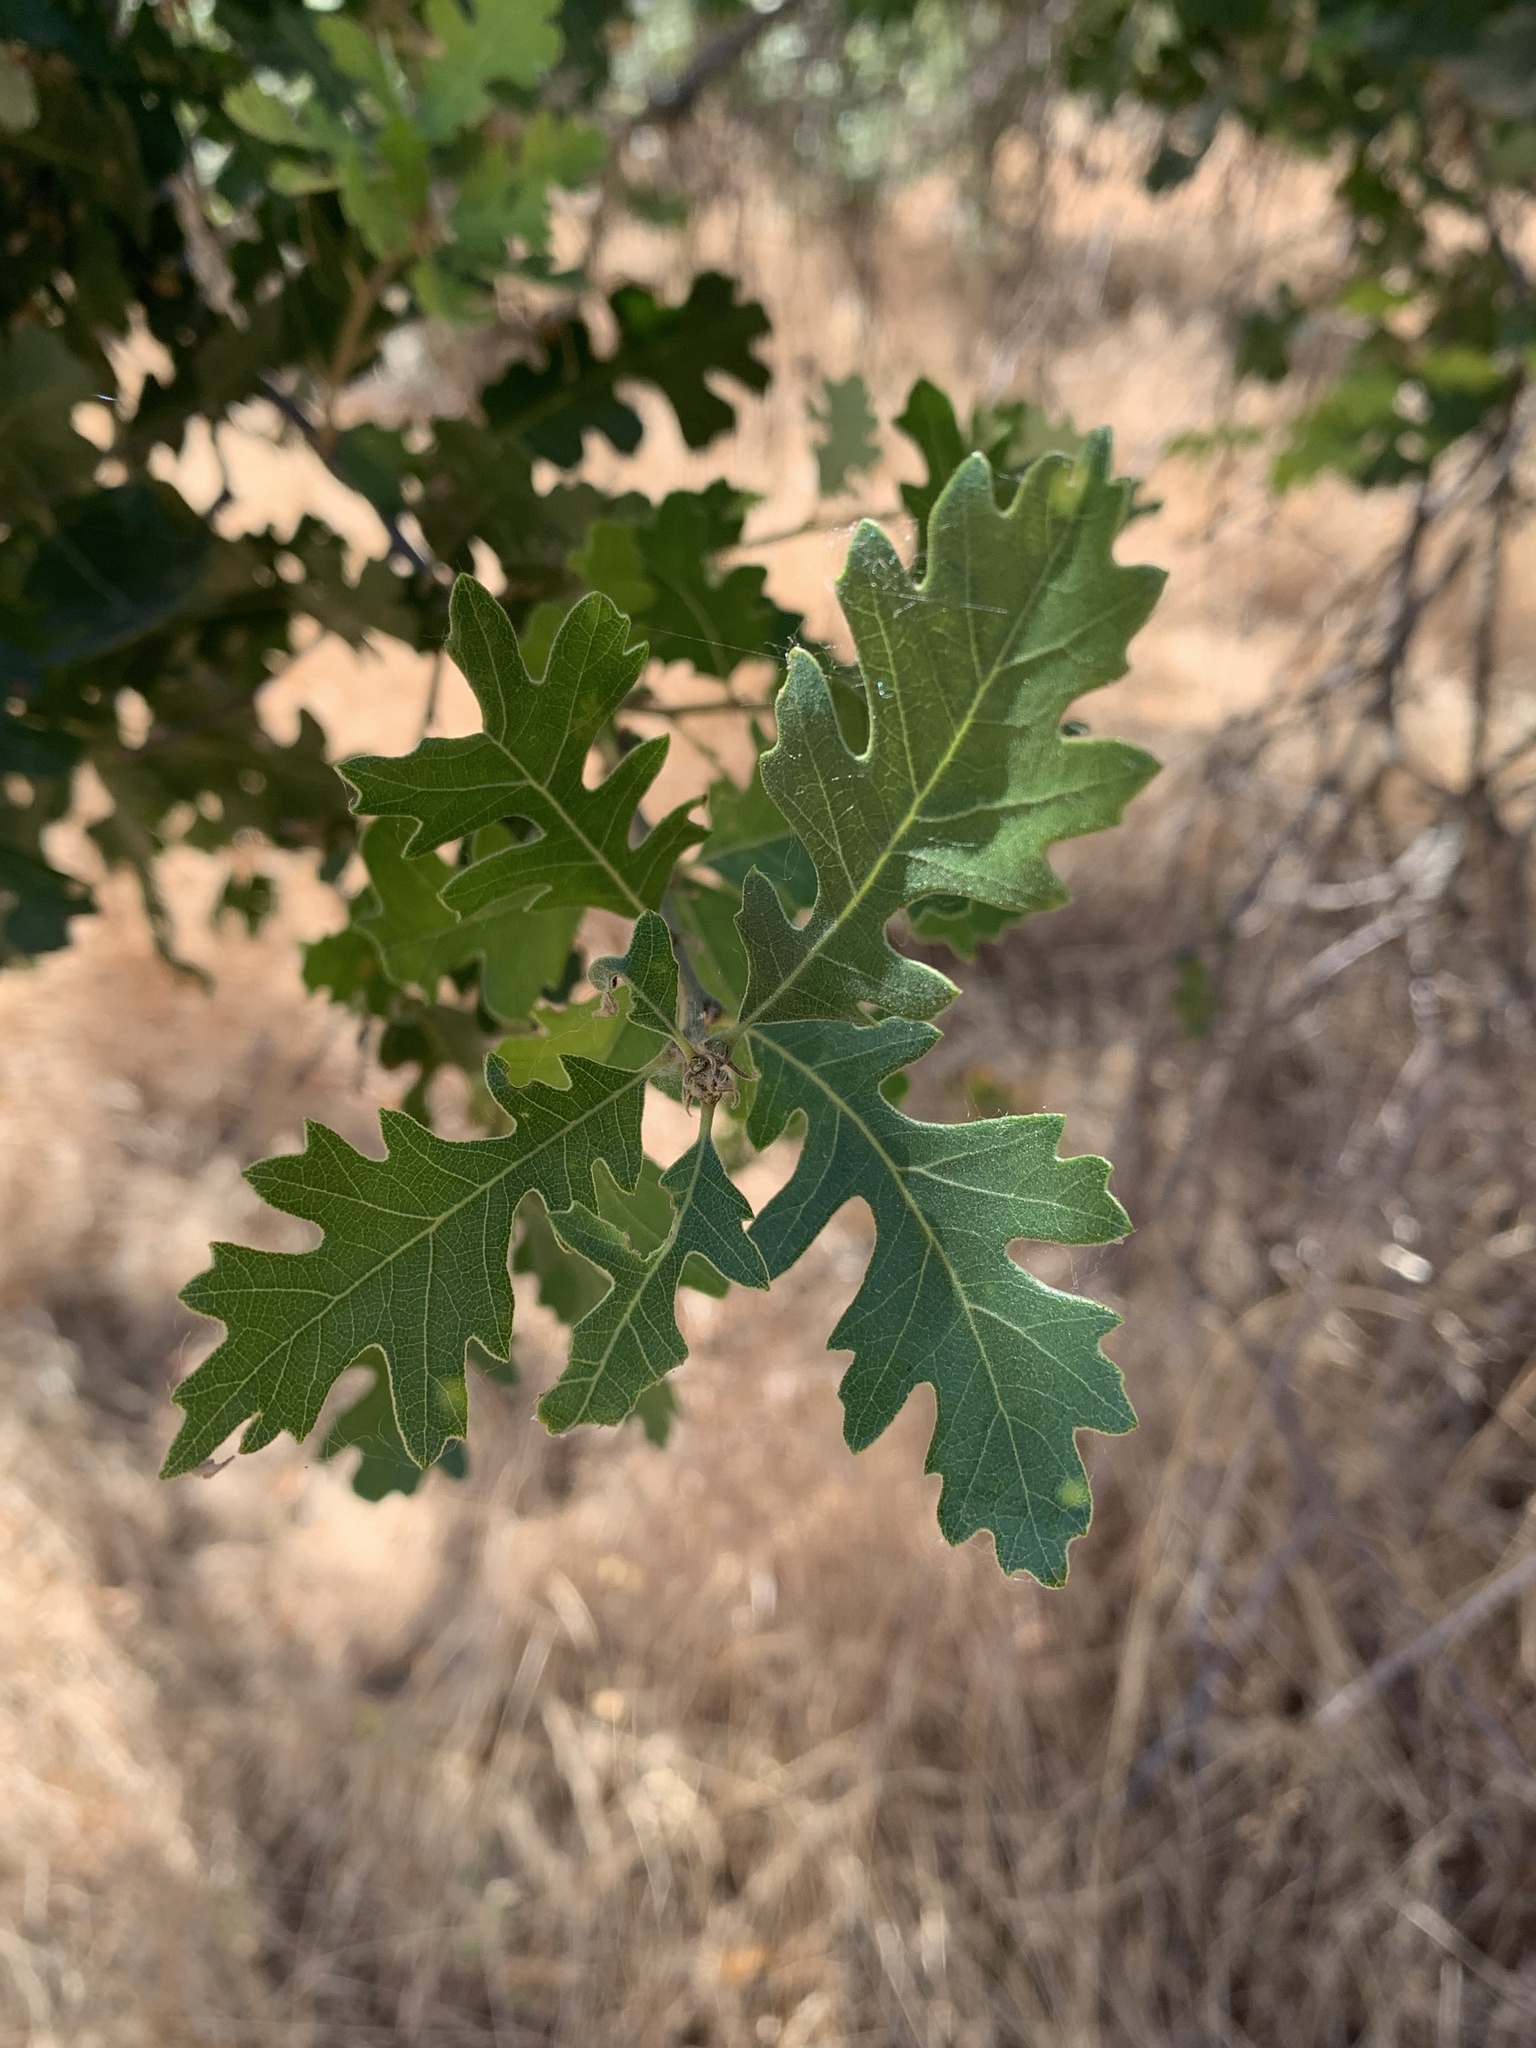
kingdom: Plantae
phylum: Tracheophyta
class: Magnoliopsida
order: Fagales
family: Fagaceae
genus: Quercus
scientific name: Quercus lobata
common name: Valley oak
